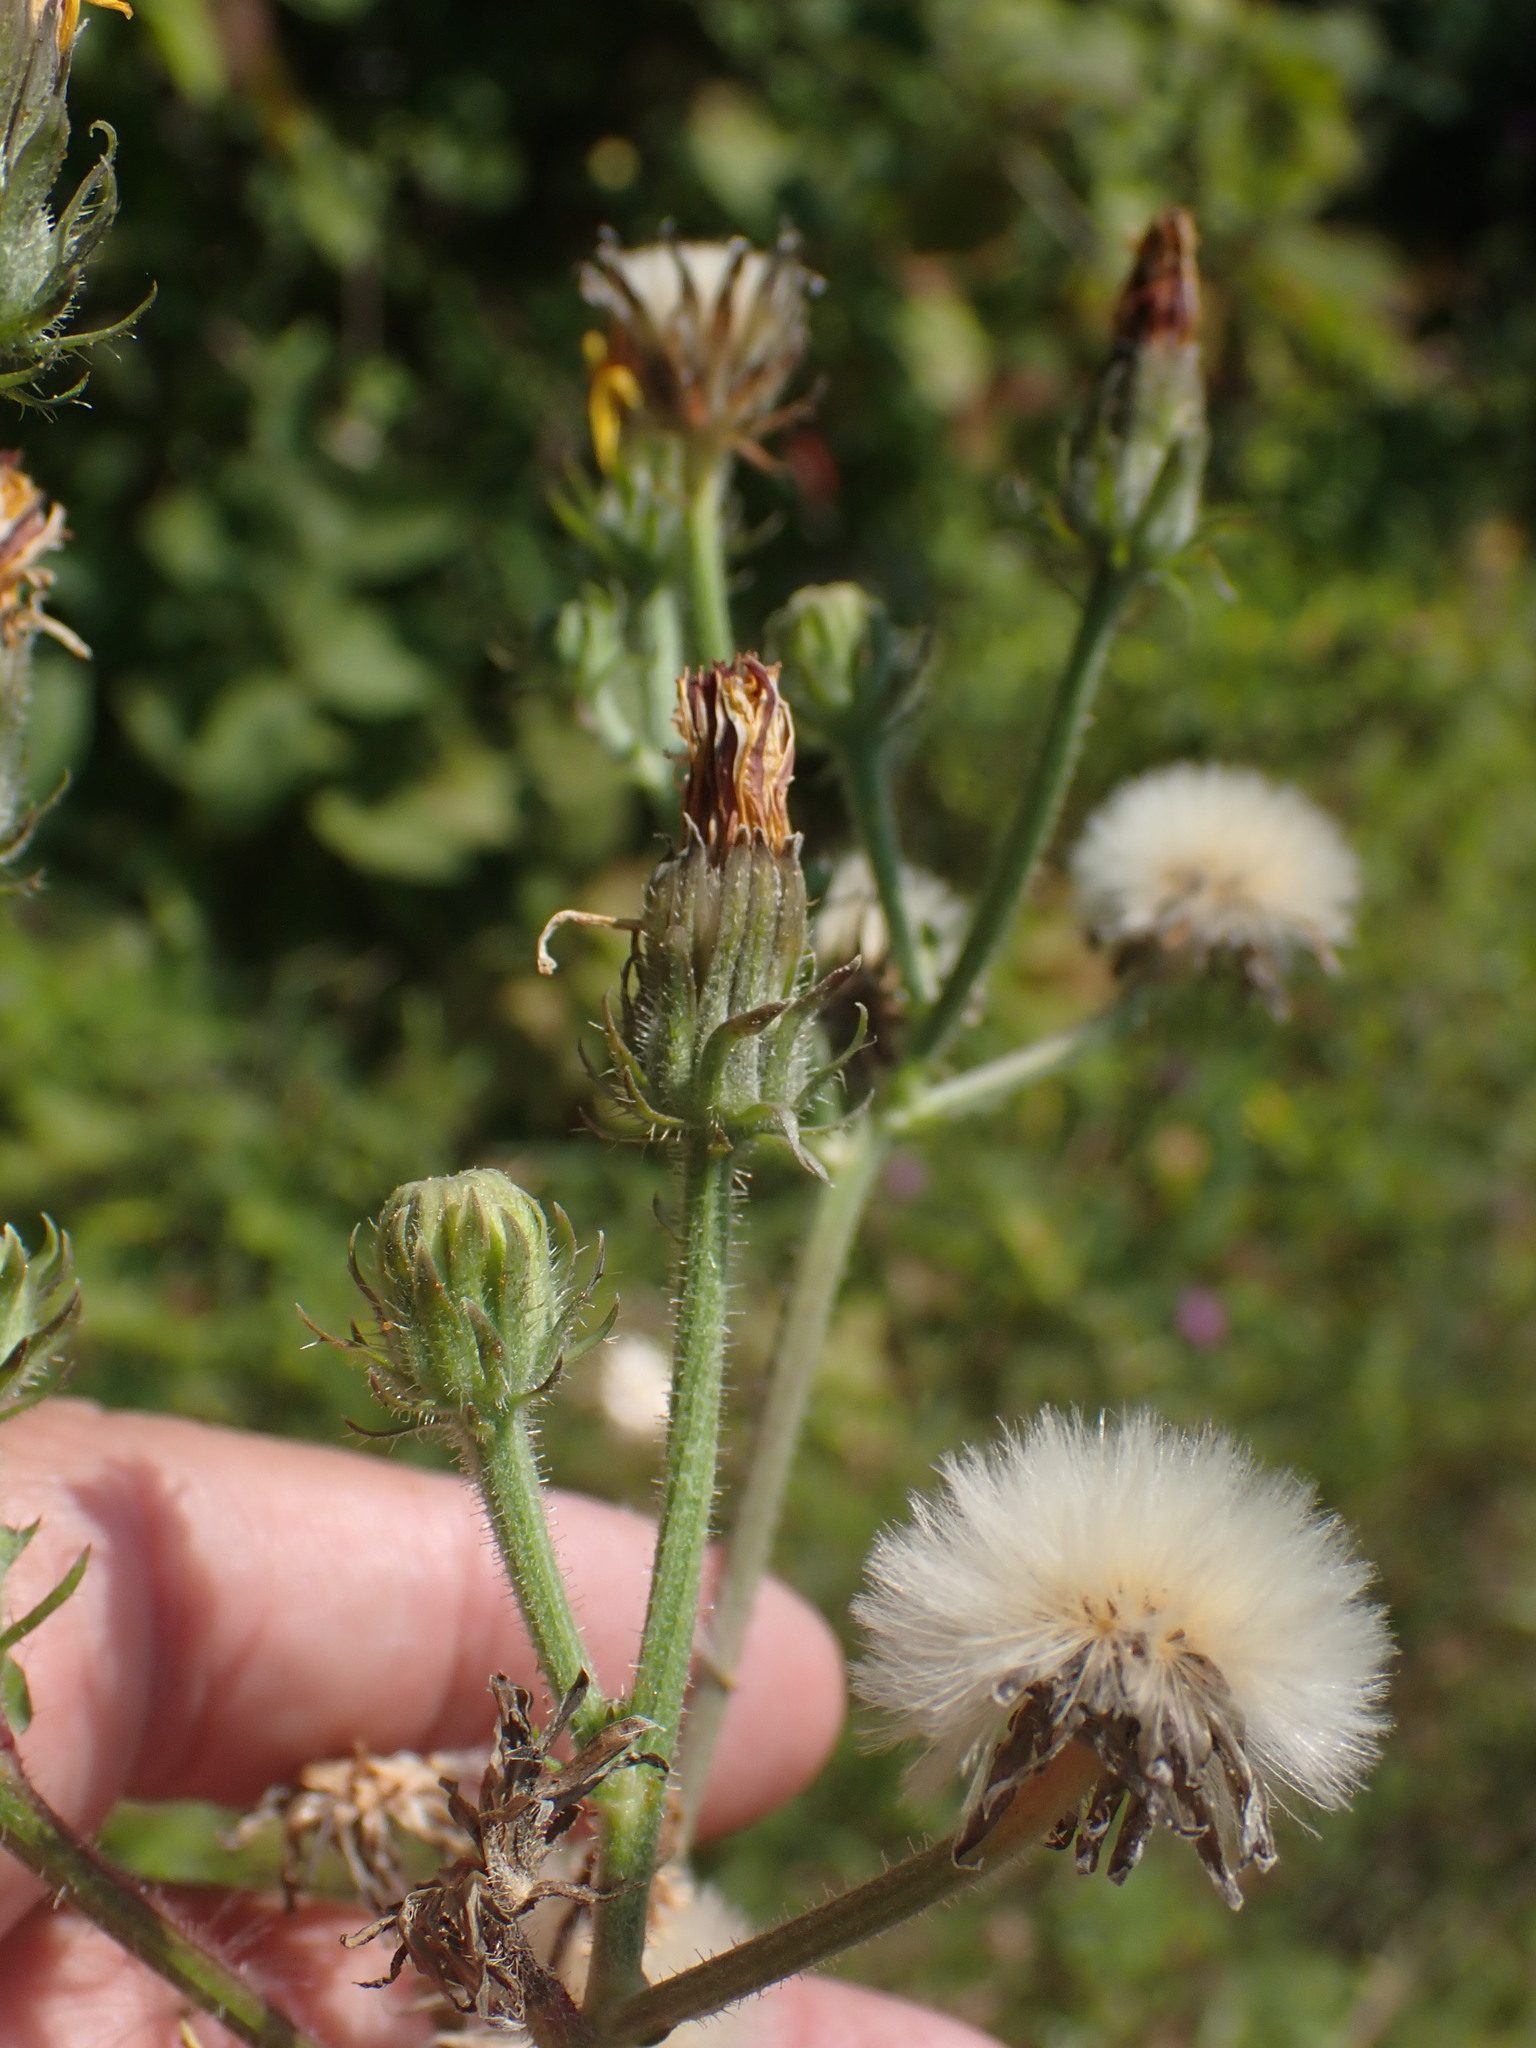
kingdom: Plantae
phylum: Tracheophyta
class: Magnoliopsida
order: Asterales
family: Asteraceae
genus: Picris
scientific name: Picris hieracioides
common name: Hawkweed oxtongue
